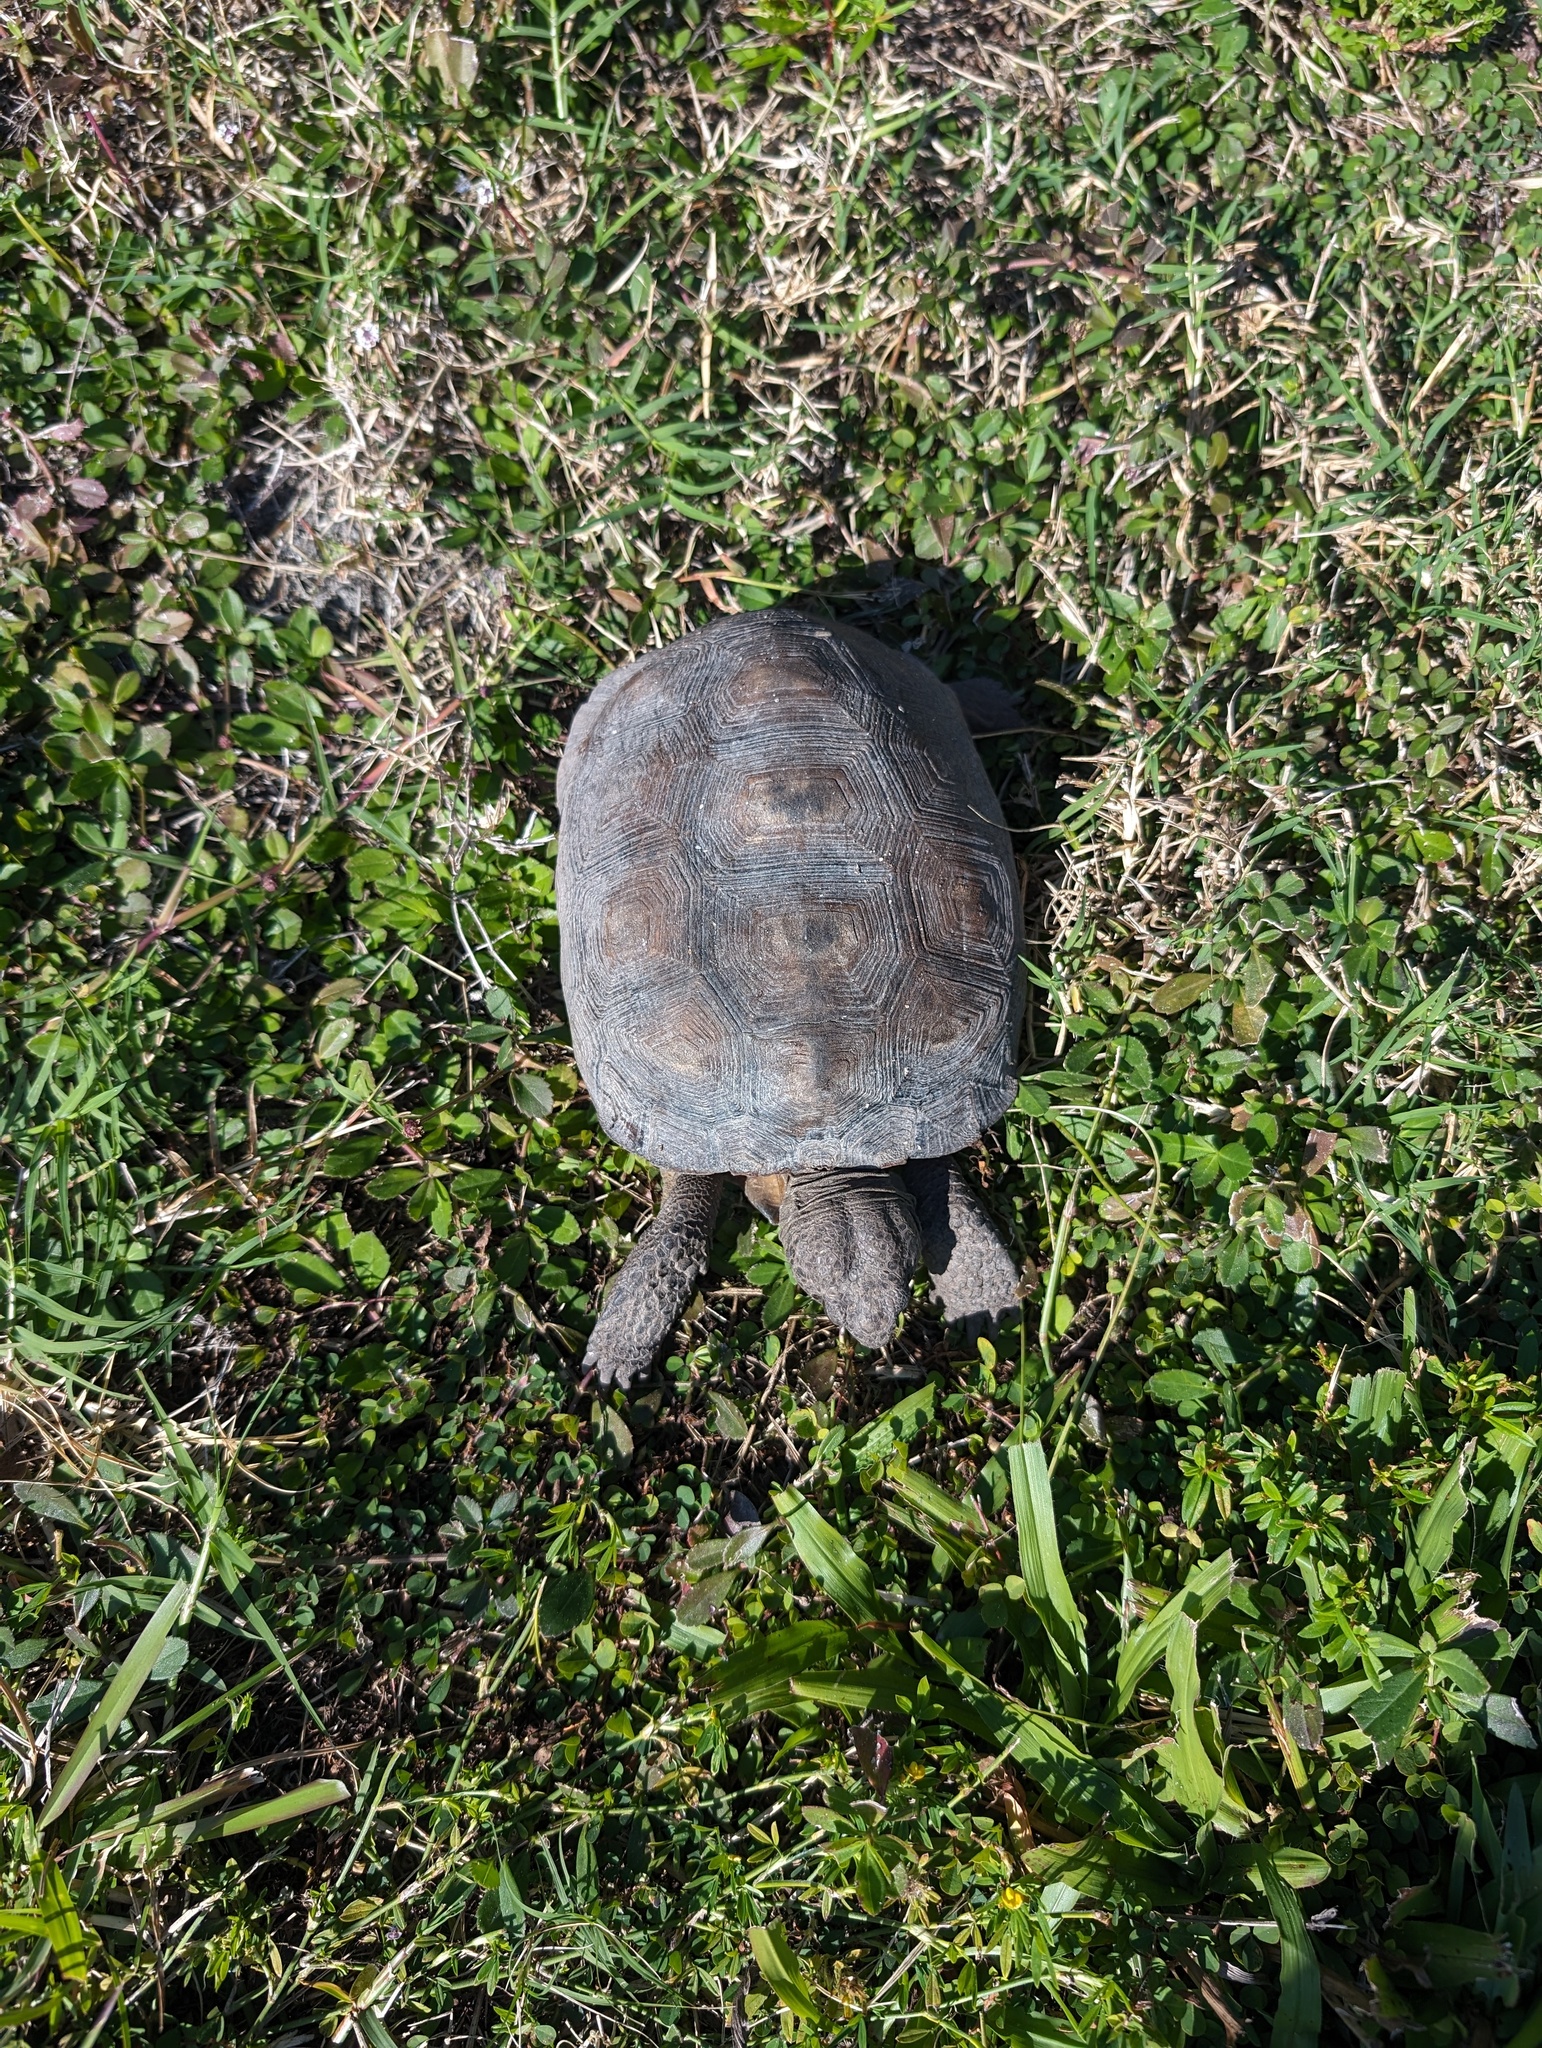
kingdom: Animalia
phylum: Chordata
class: Testudines
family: Testudinidae
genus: Gopherus
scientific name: Gopherus polyphemus
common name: Florida gopher tortoise
